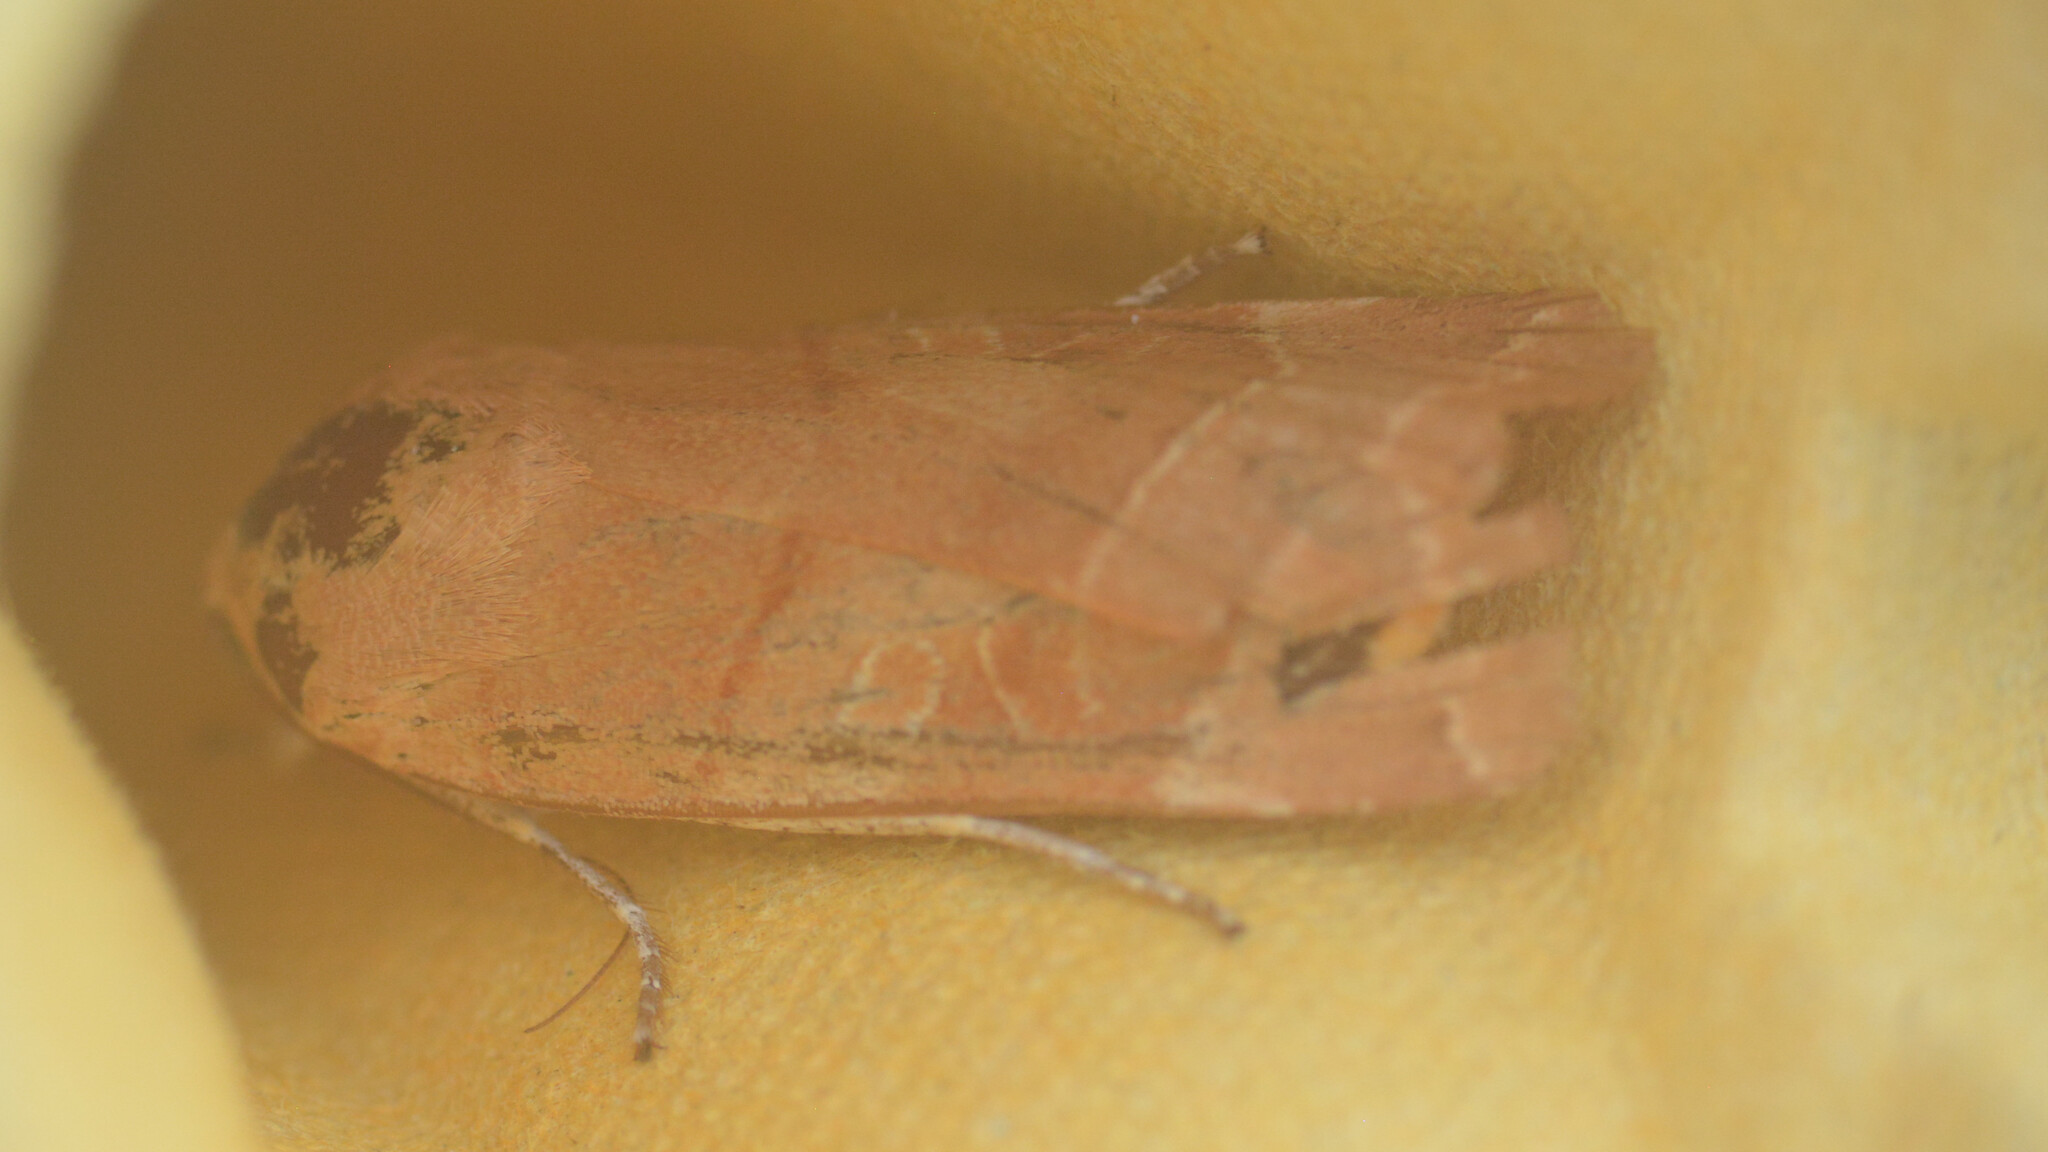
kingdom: Animalia
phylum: Arthropoda
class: Insecta
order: Lepidoptera
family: Noctuidae
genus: Noctua
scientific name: Noctua fimbriata
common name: Broad-bordered yellow underwing
